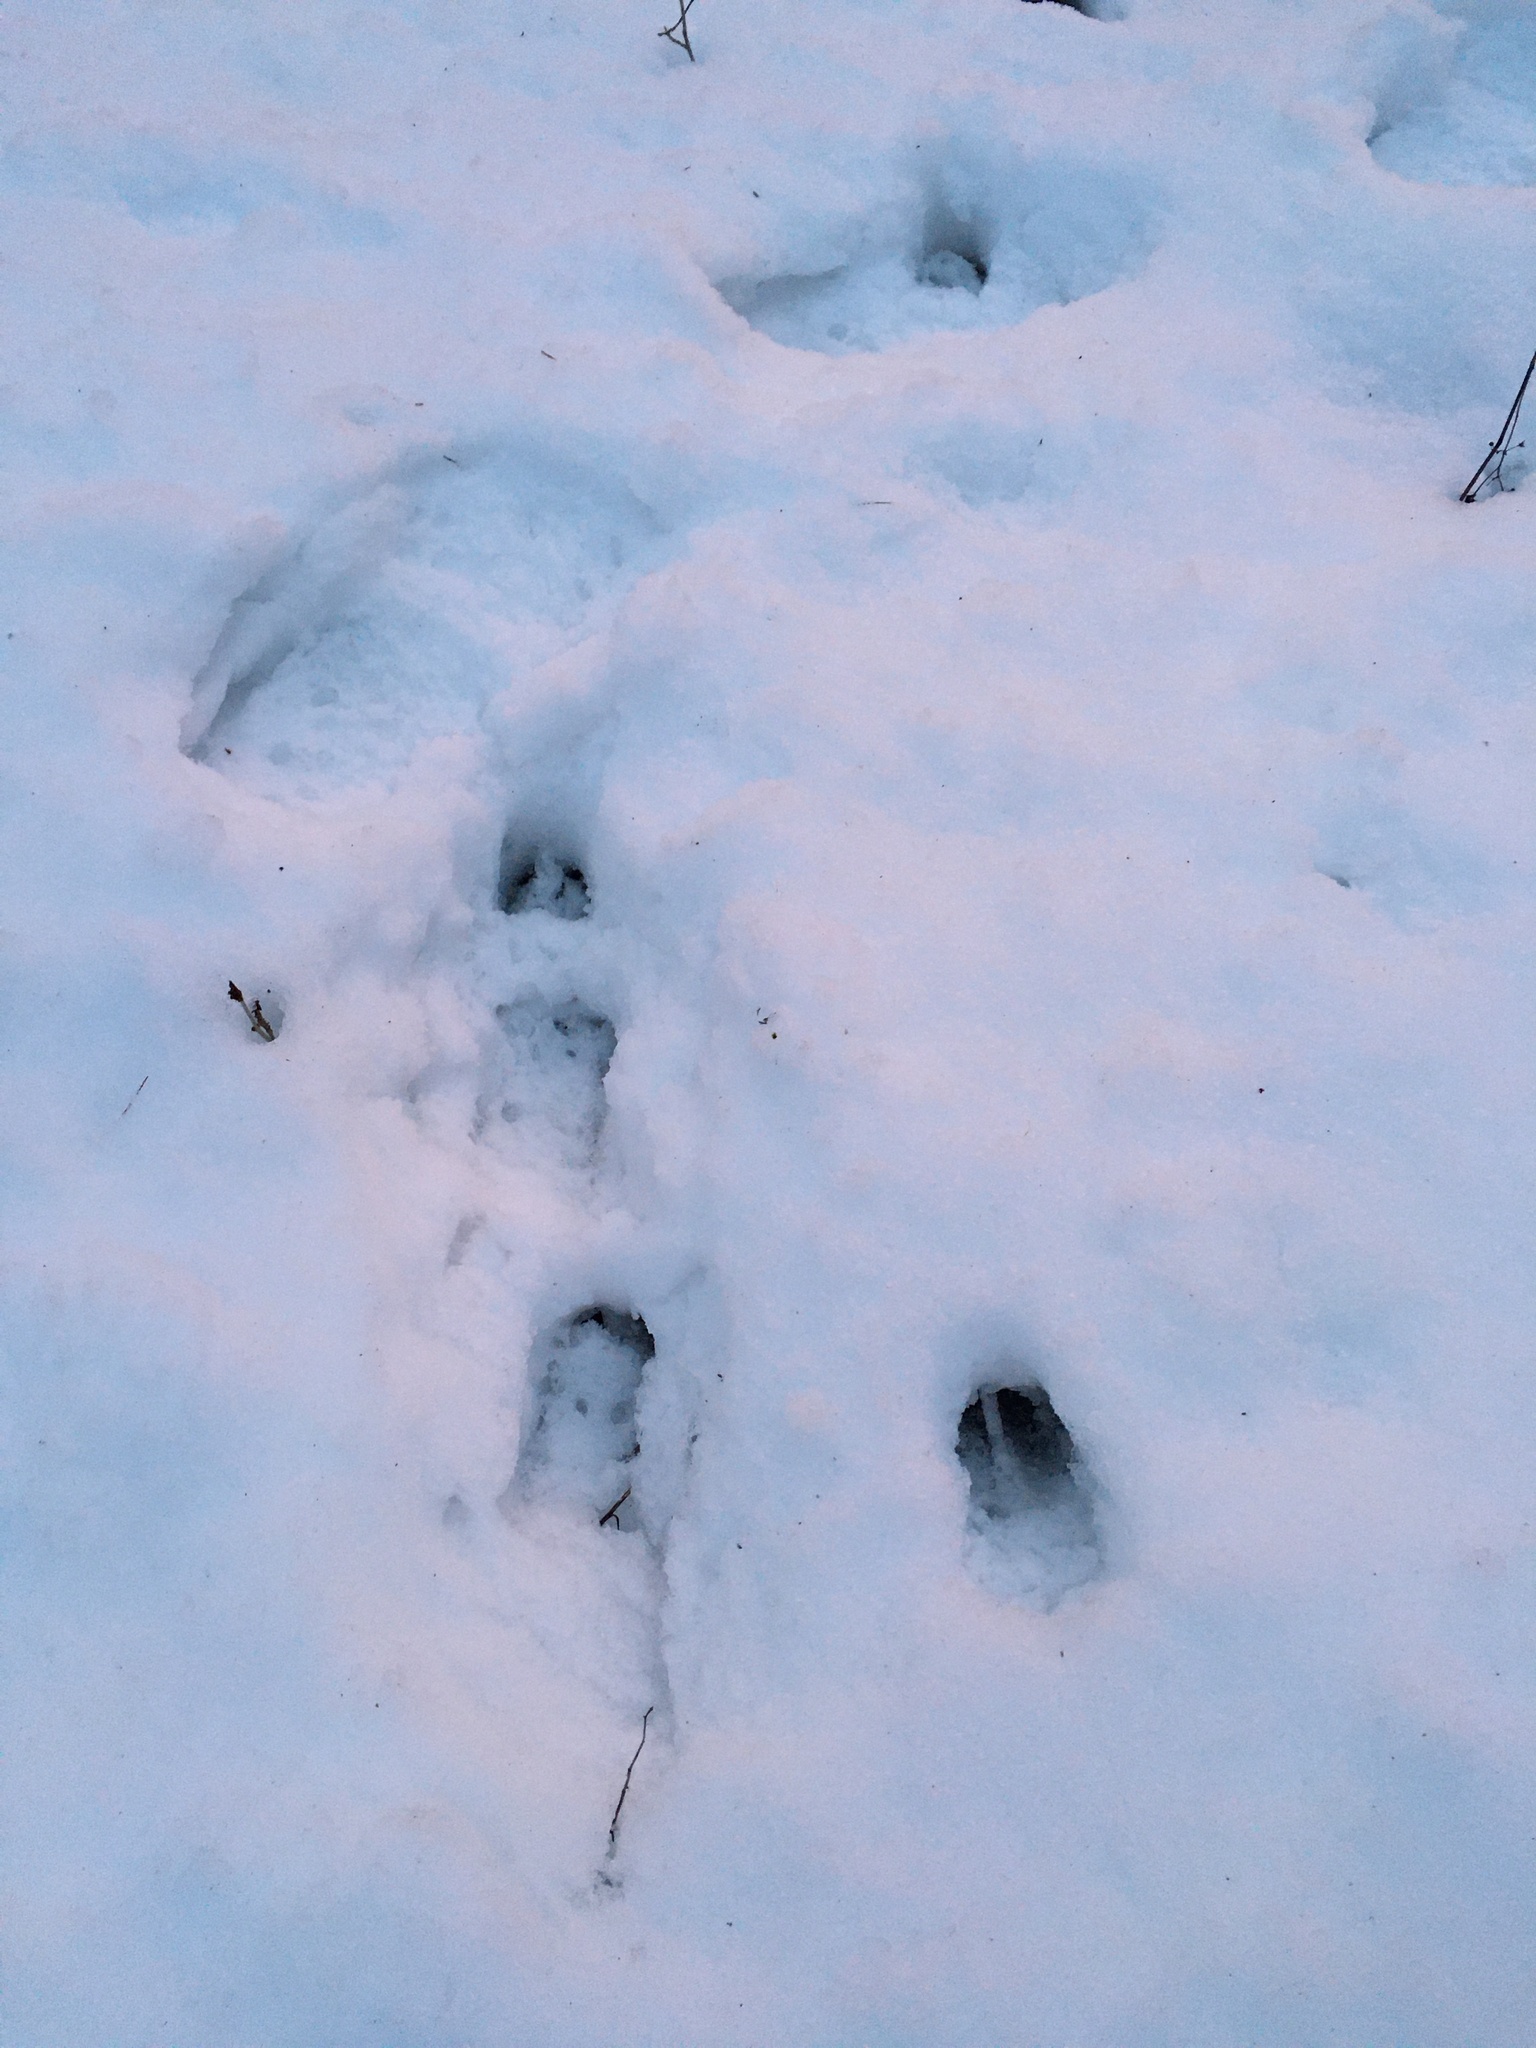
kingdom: Animalia
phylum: Chordata
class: Mammalia
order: Artiodactyla
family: Cervidae
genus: Odocoileus
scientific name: Odocoileus virginianus
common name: White-tailed deer
